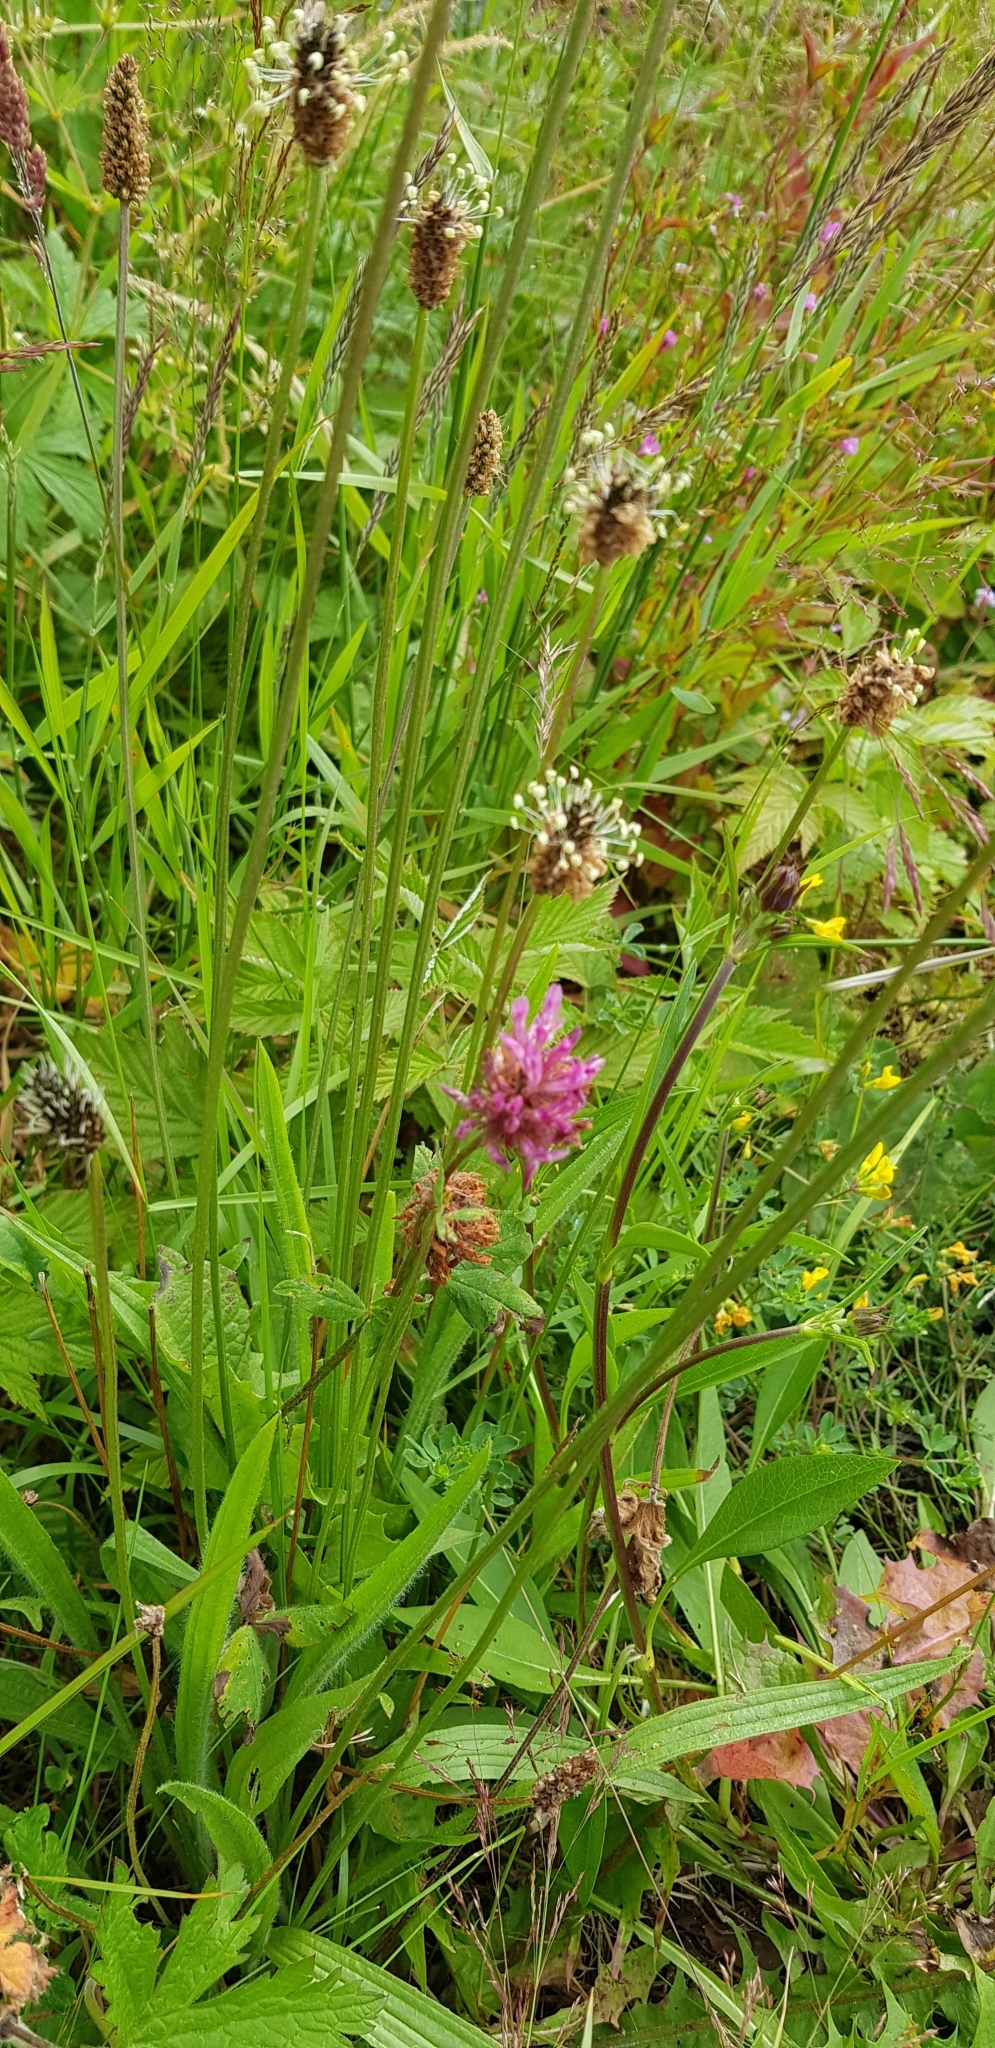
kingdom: Plantae
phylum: Tracheophyta
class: Magnoliopsida
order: Lamiales
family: Plantaginaceae
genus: Plantago
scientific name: Plantago lanceolata
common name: Ribwort plantain
